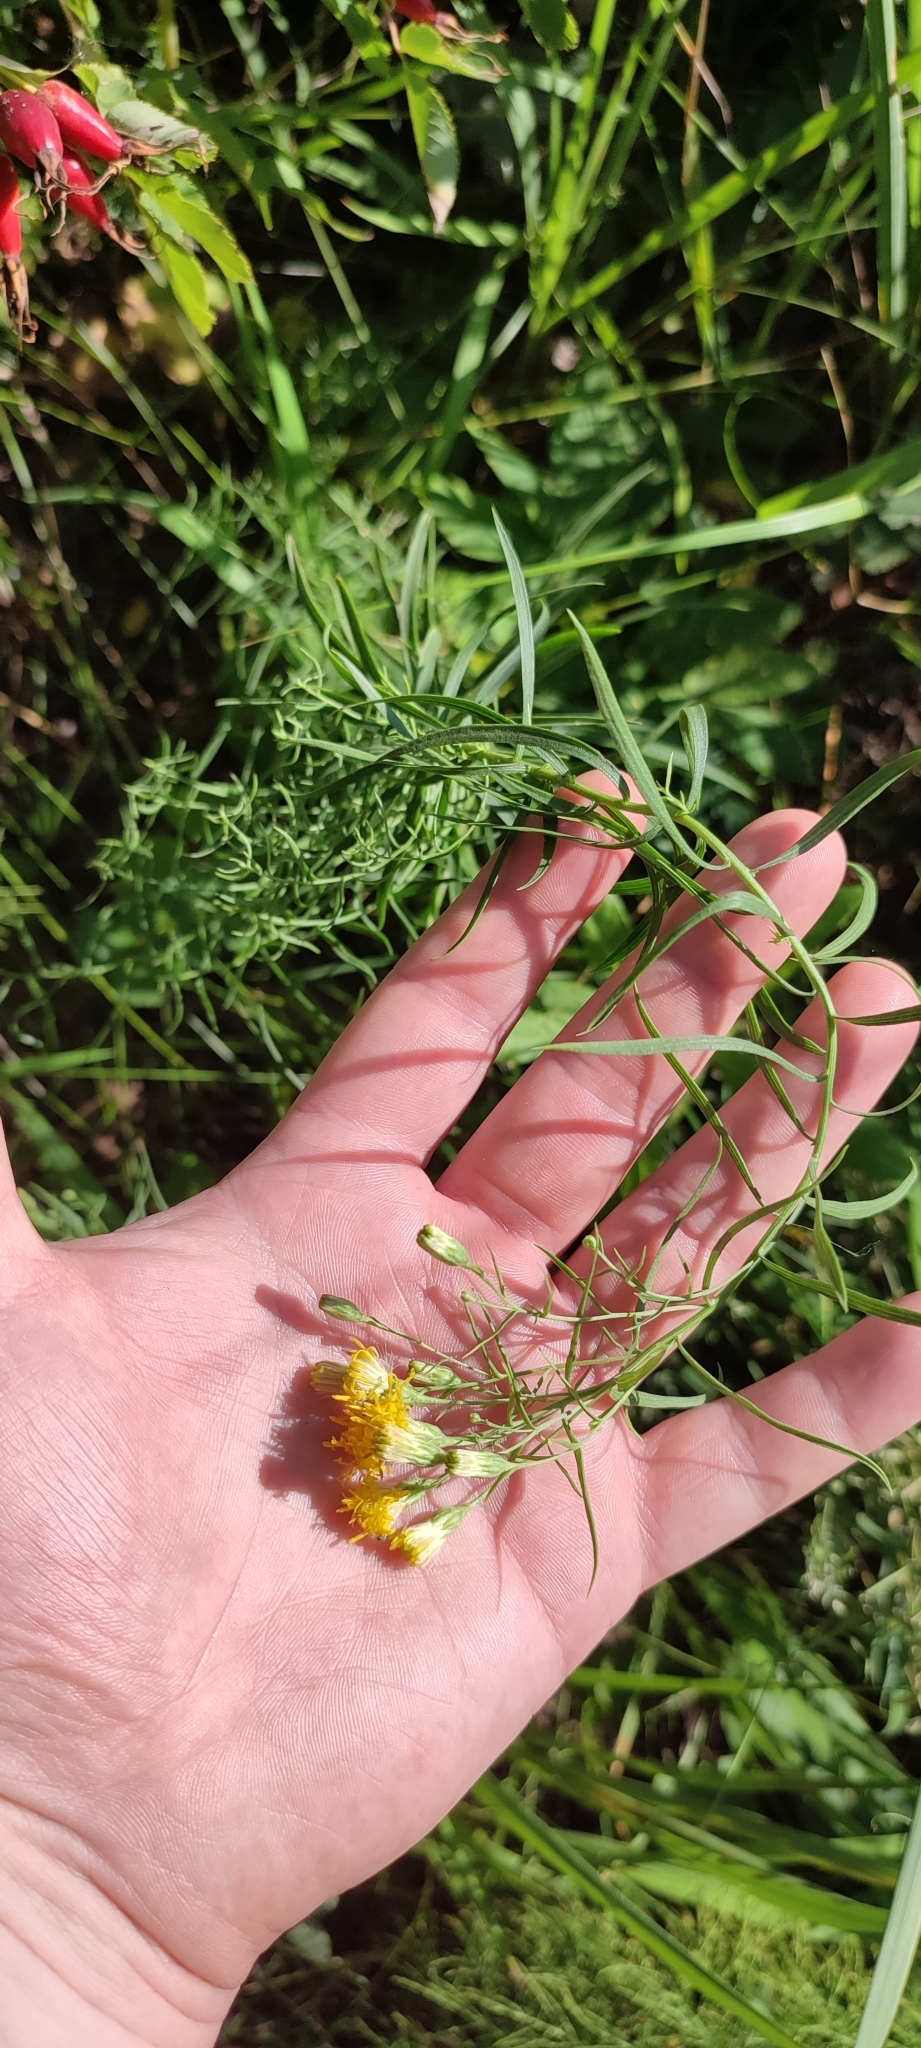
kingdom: Plantae
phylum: Tracheophyta
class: Magnoliopsida
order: Asterales
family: Asteraceae
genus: Galatella
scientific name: Galatella biflora
